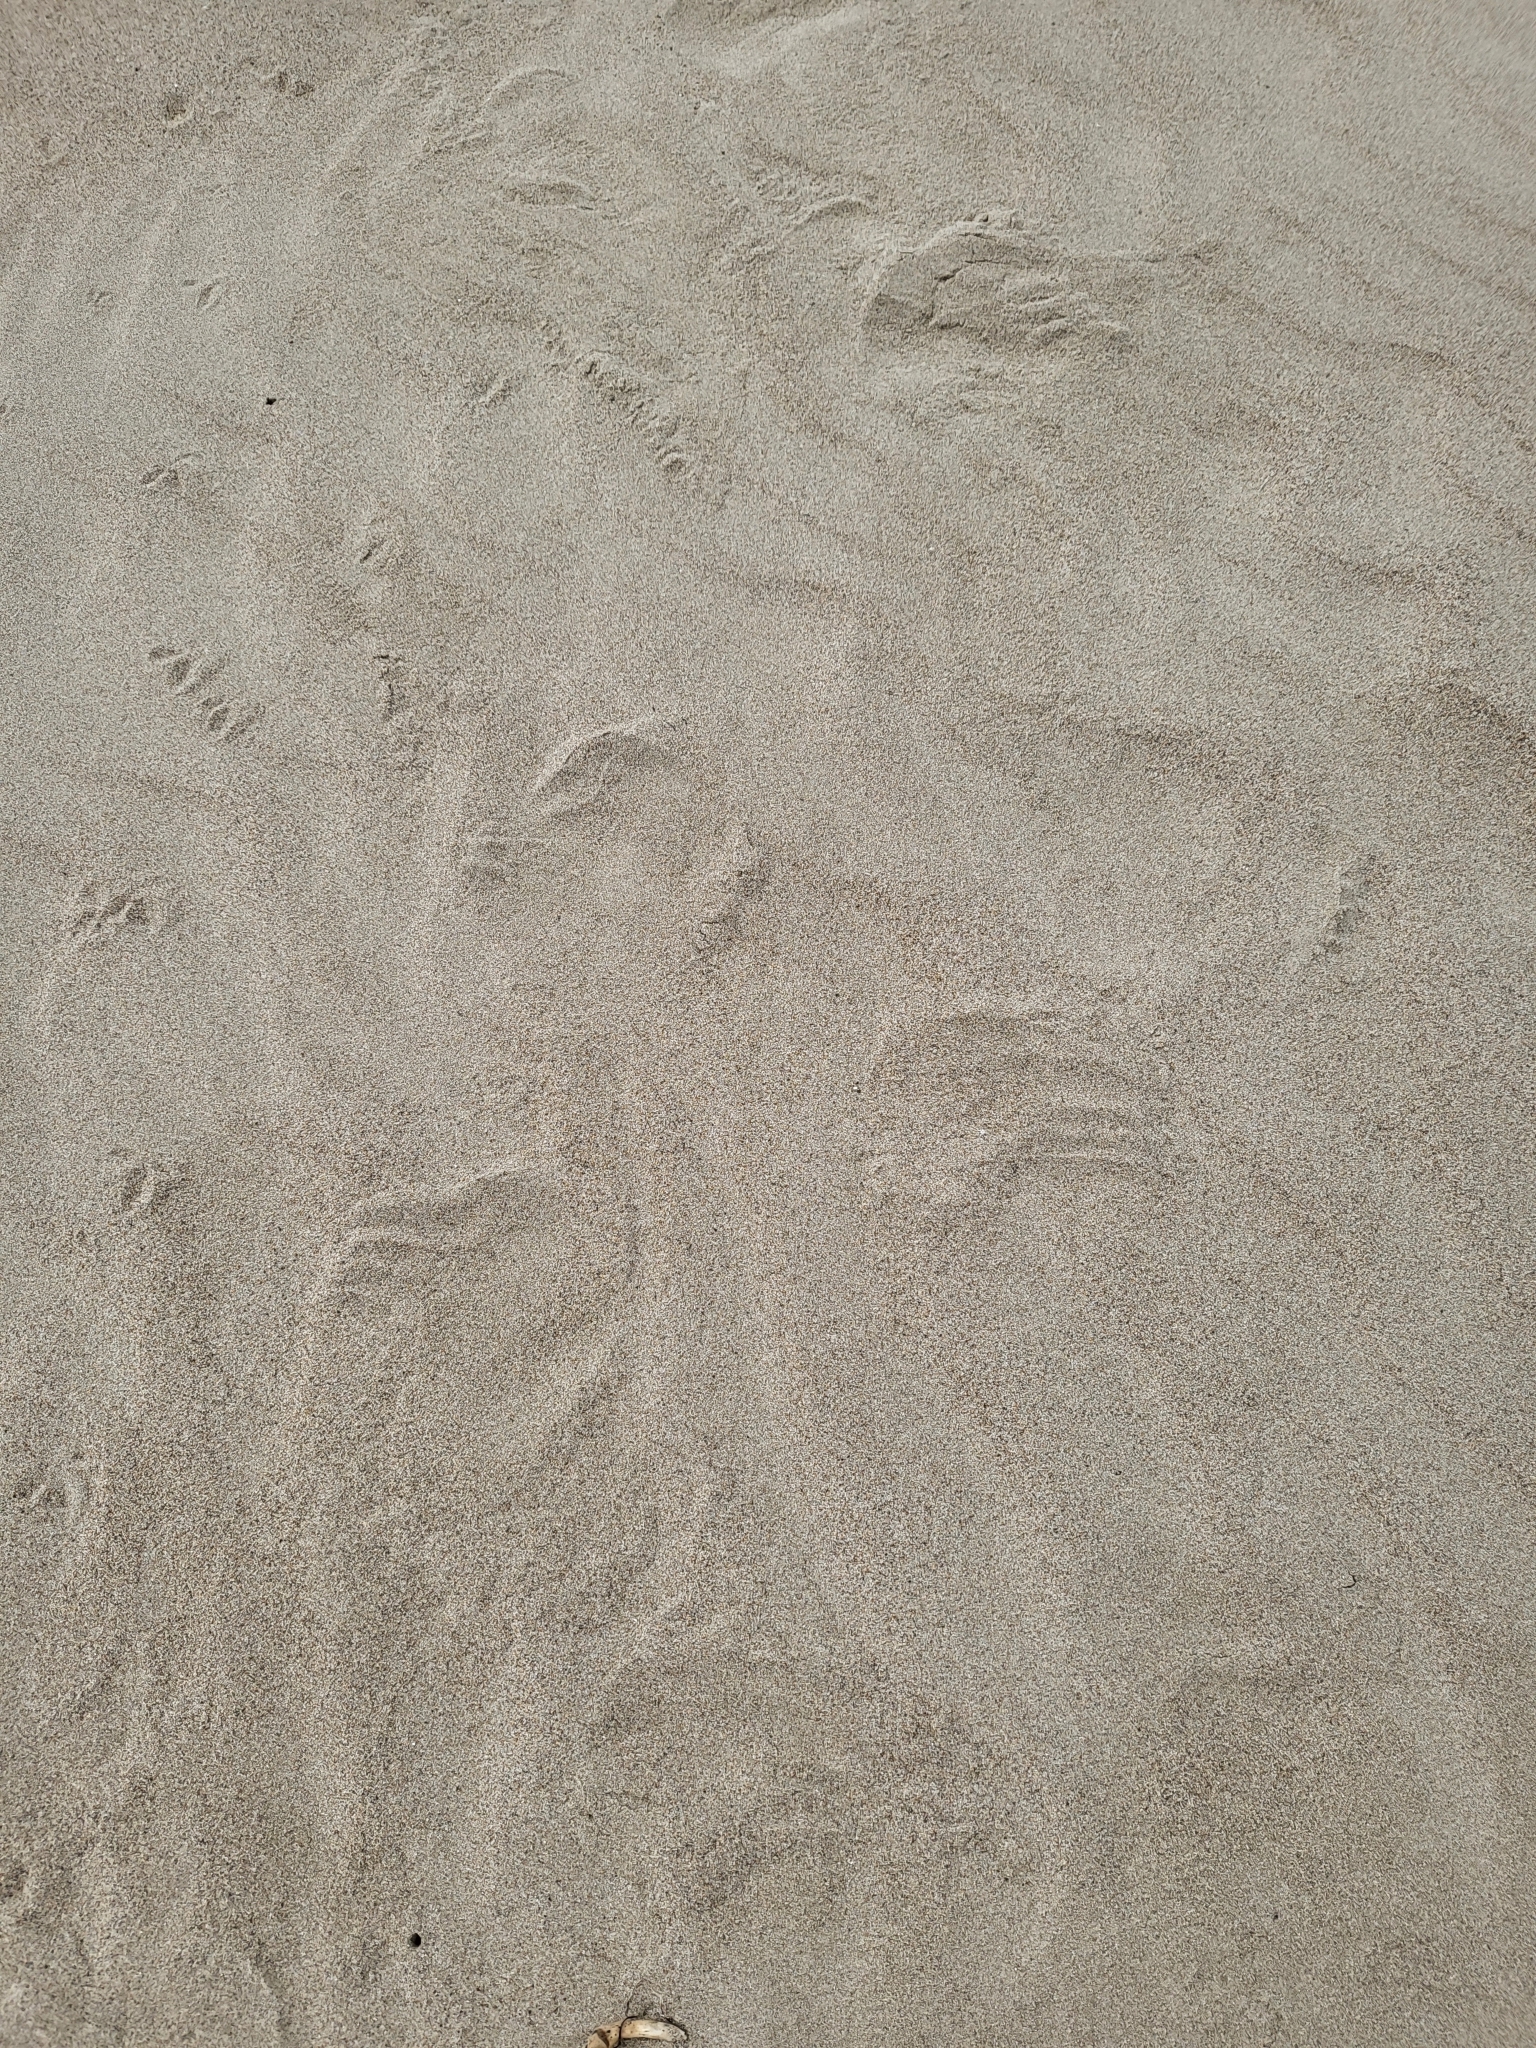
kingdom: Animalia
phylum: Chordata
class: Mammalia
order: Carnivora
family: Otariidae
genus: Zalophus
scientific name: Zalophus californianus
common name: California sea lion
